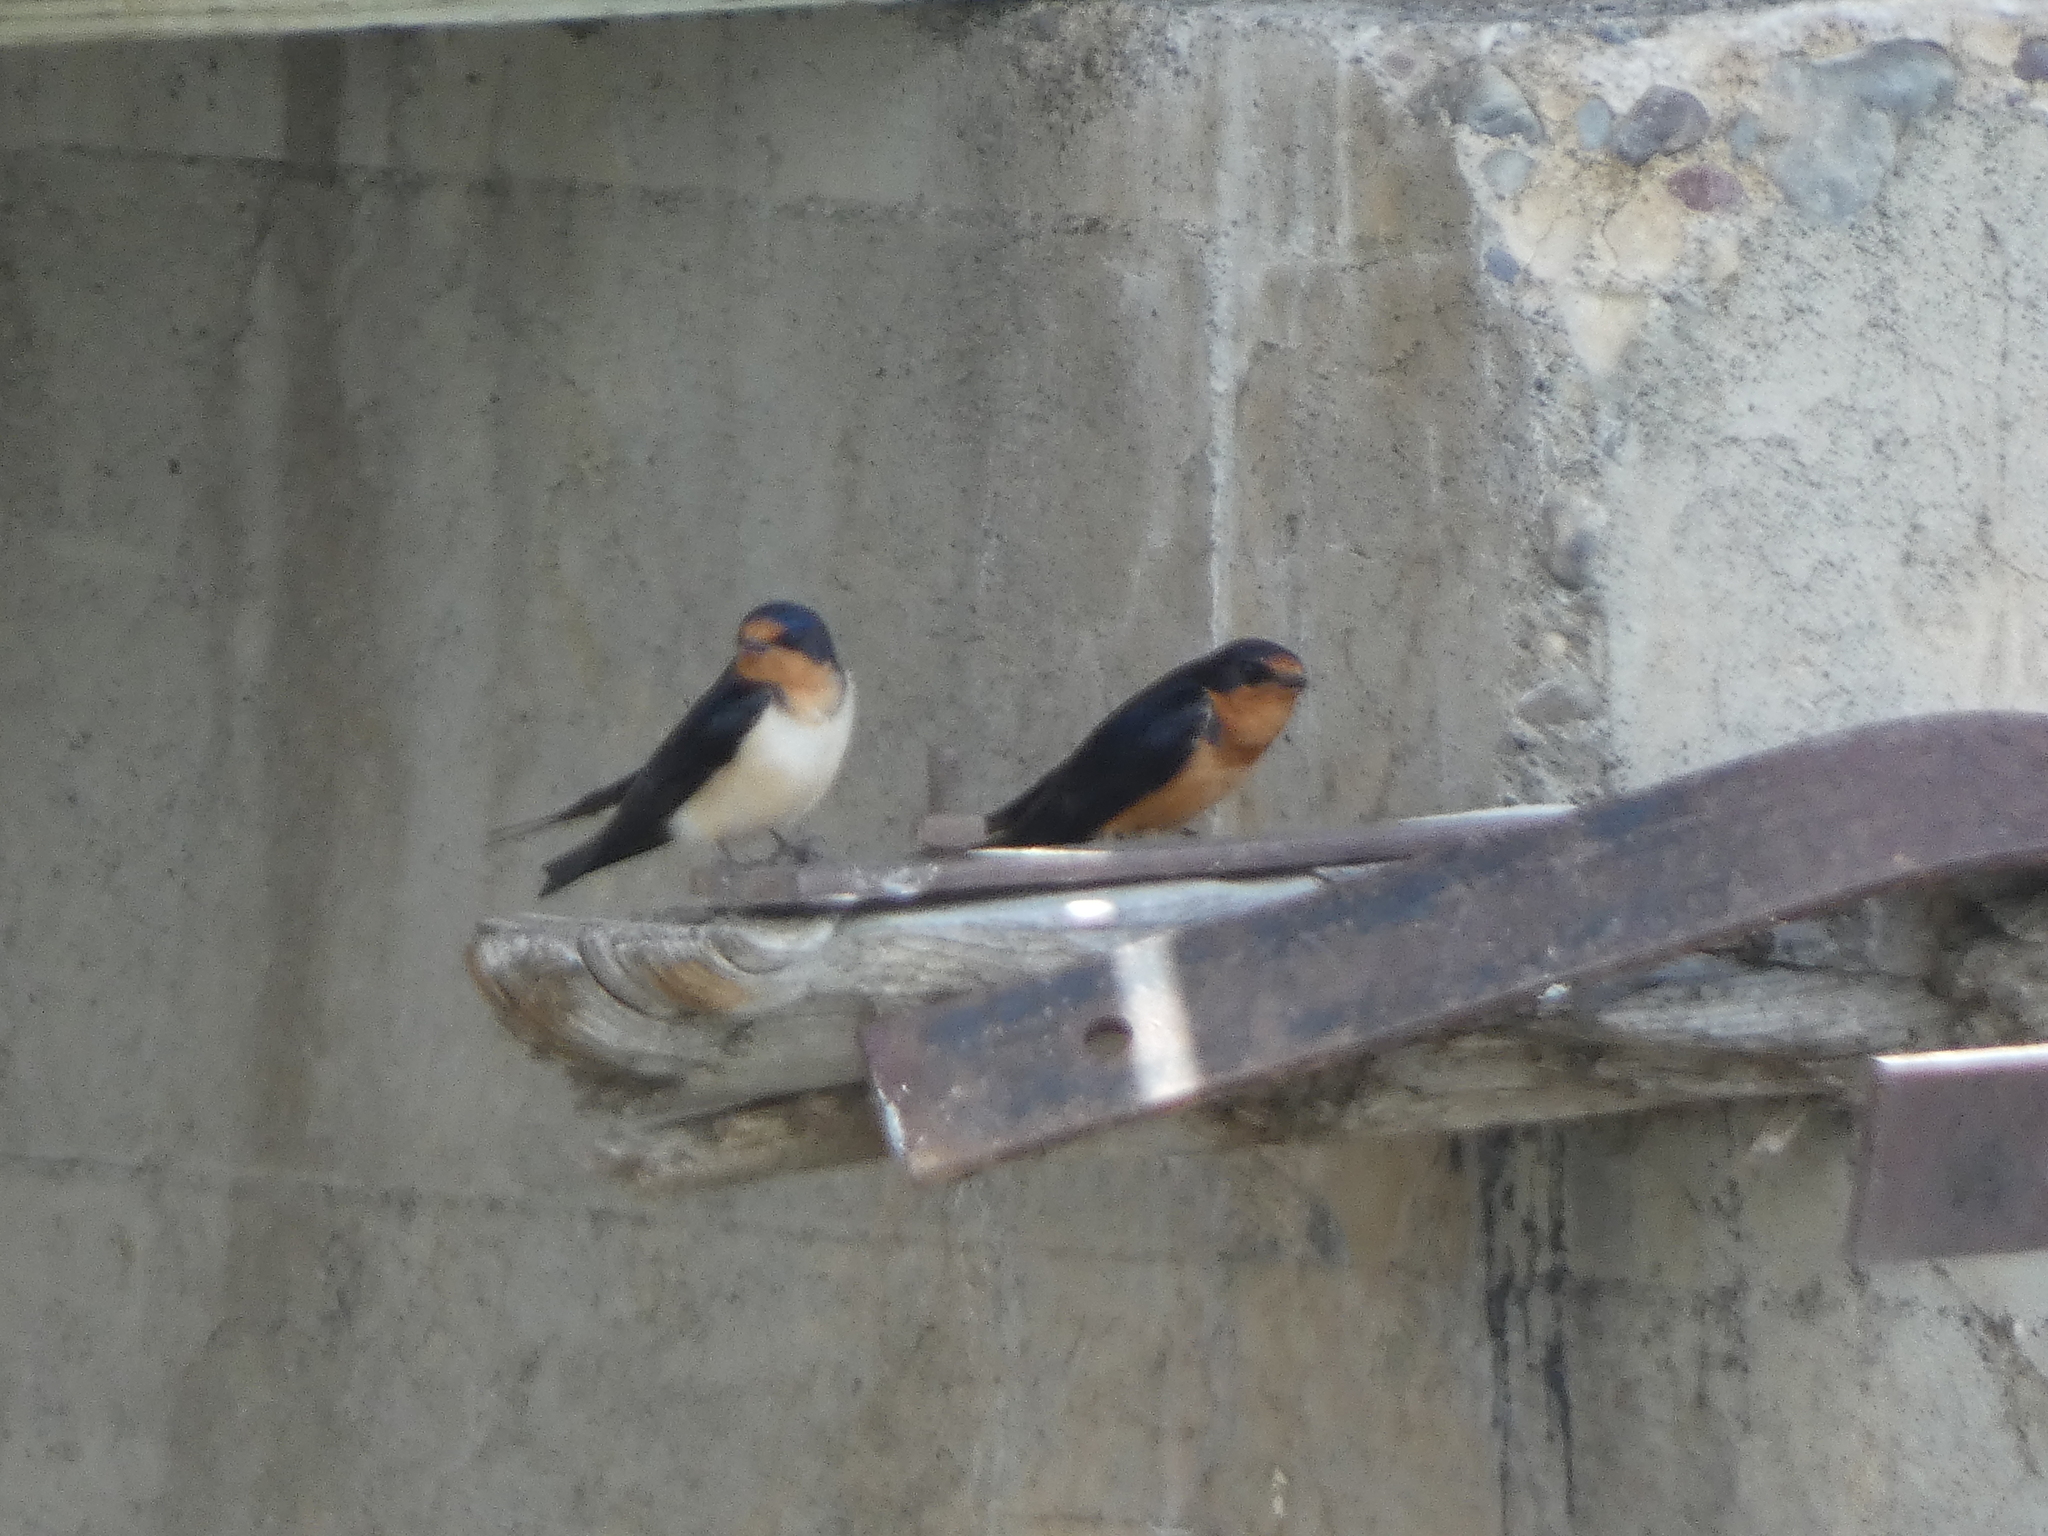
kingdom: Animalia
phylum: Chordata
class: Aves
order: Passeriformes
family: Hirundinidae
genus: Hirundo
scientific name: Hirundo rustica
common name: Barn swallow
